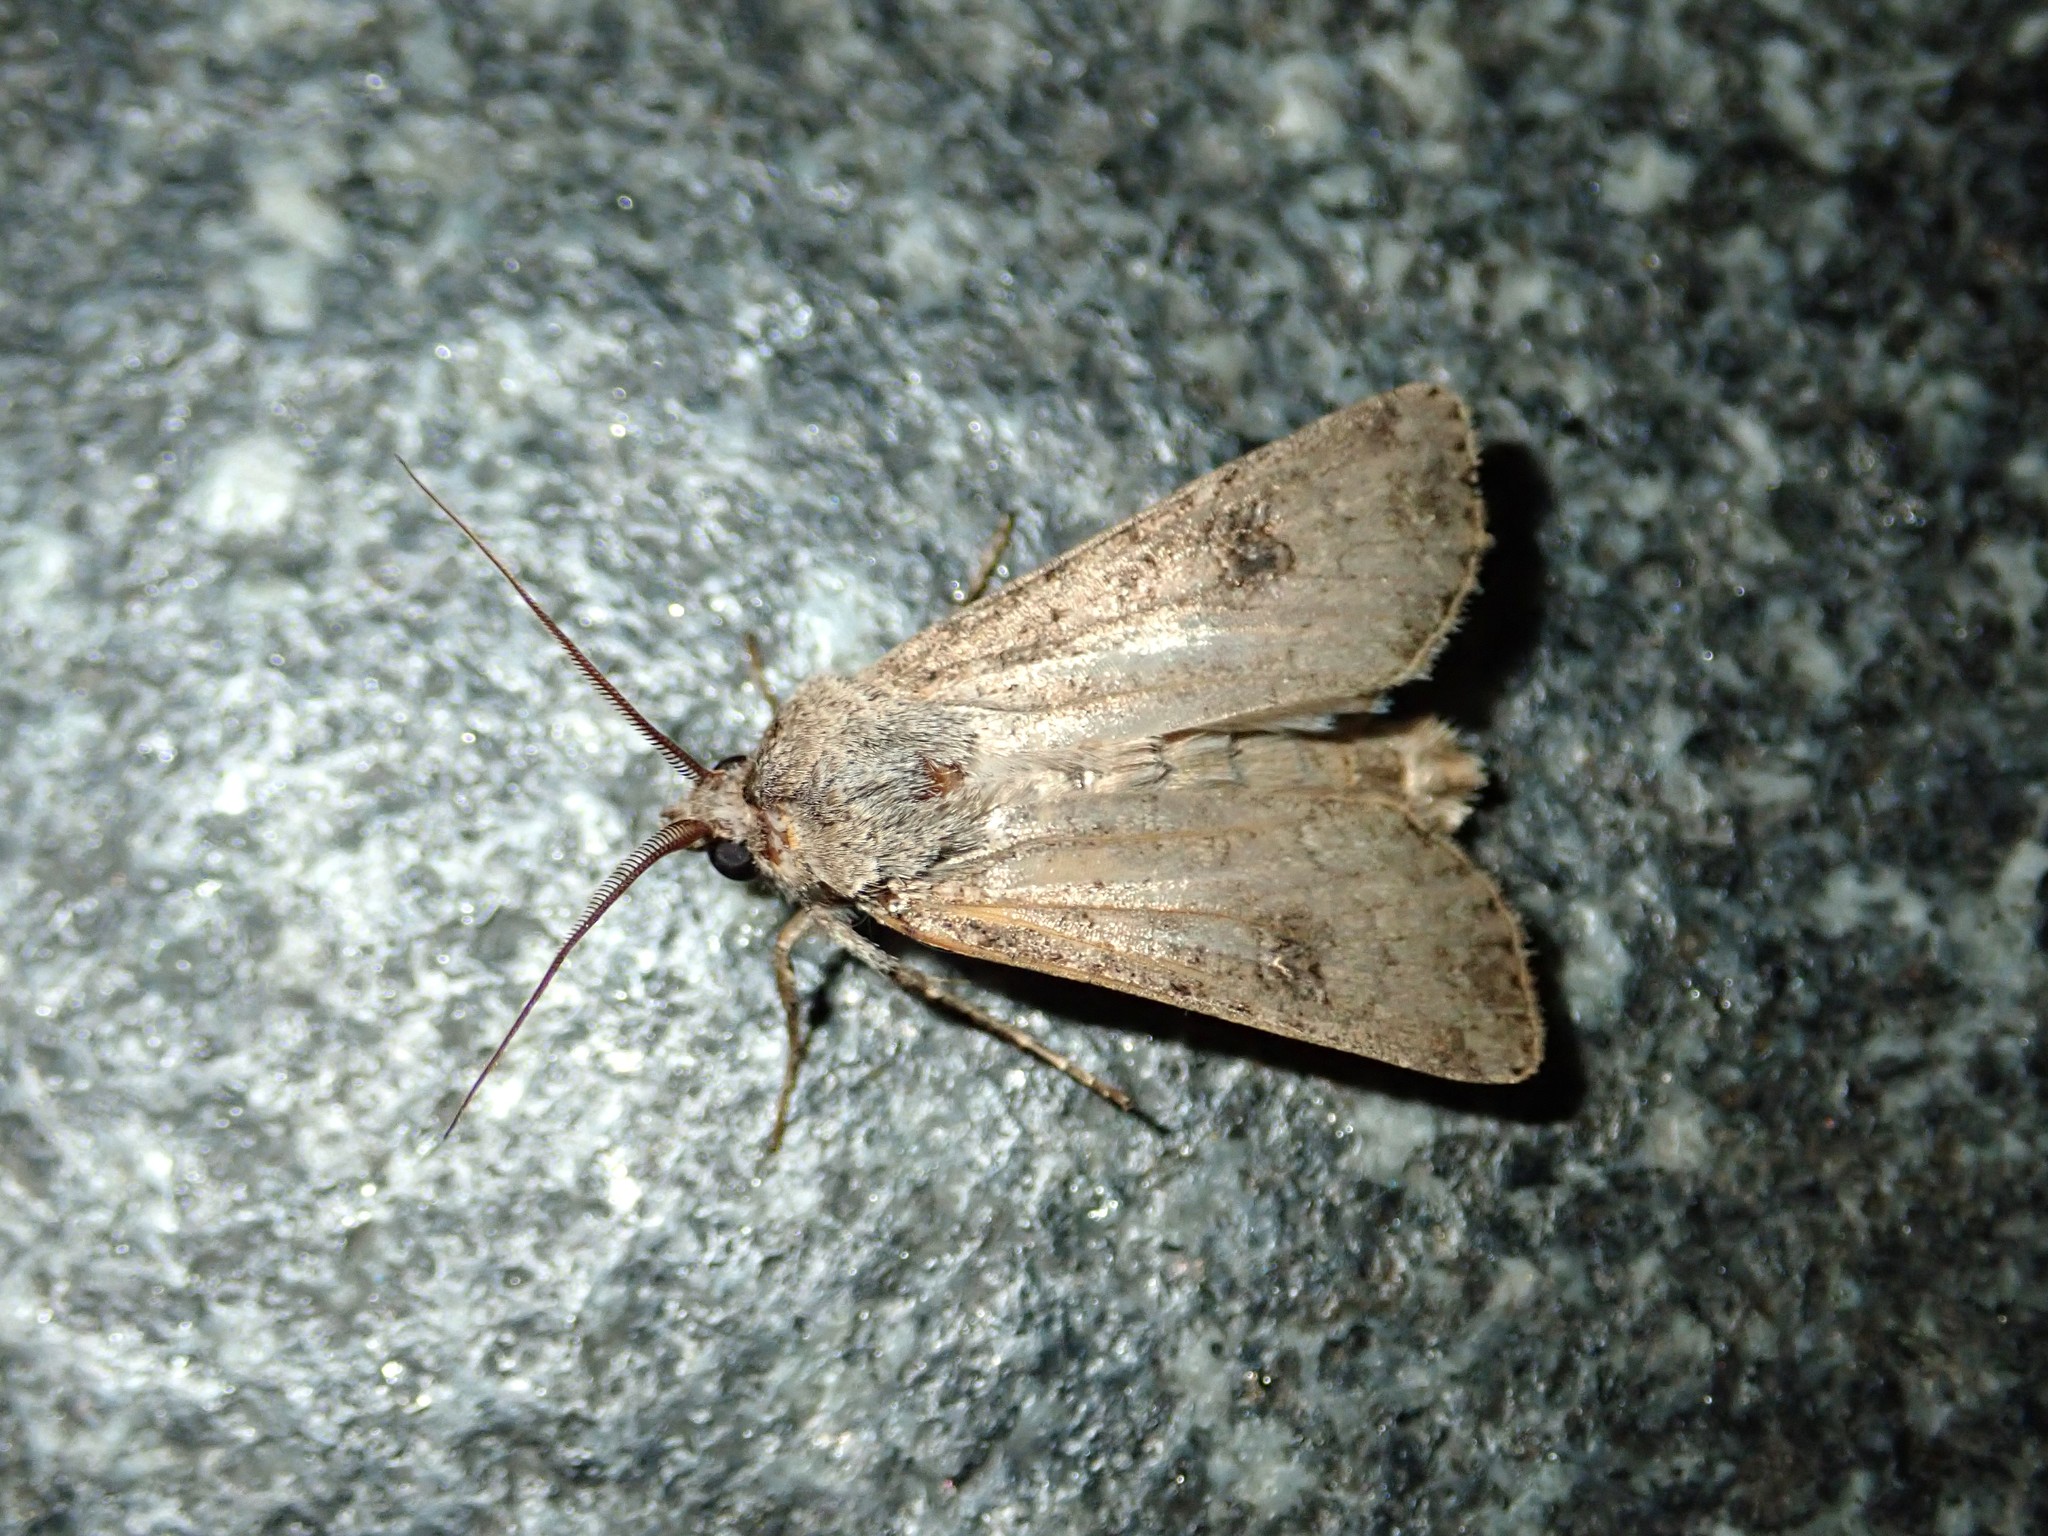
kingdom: Animalia
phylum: Arthropoda
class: Insecta
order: Lepidoptera
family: Noctuidae
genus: Agrotis
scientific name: Agrotis segetum
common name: Turnip moth
